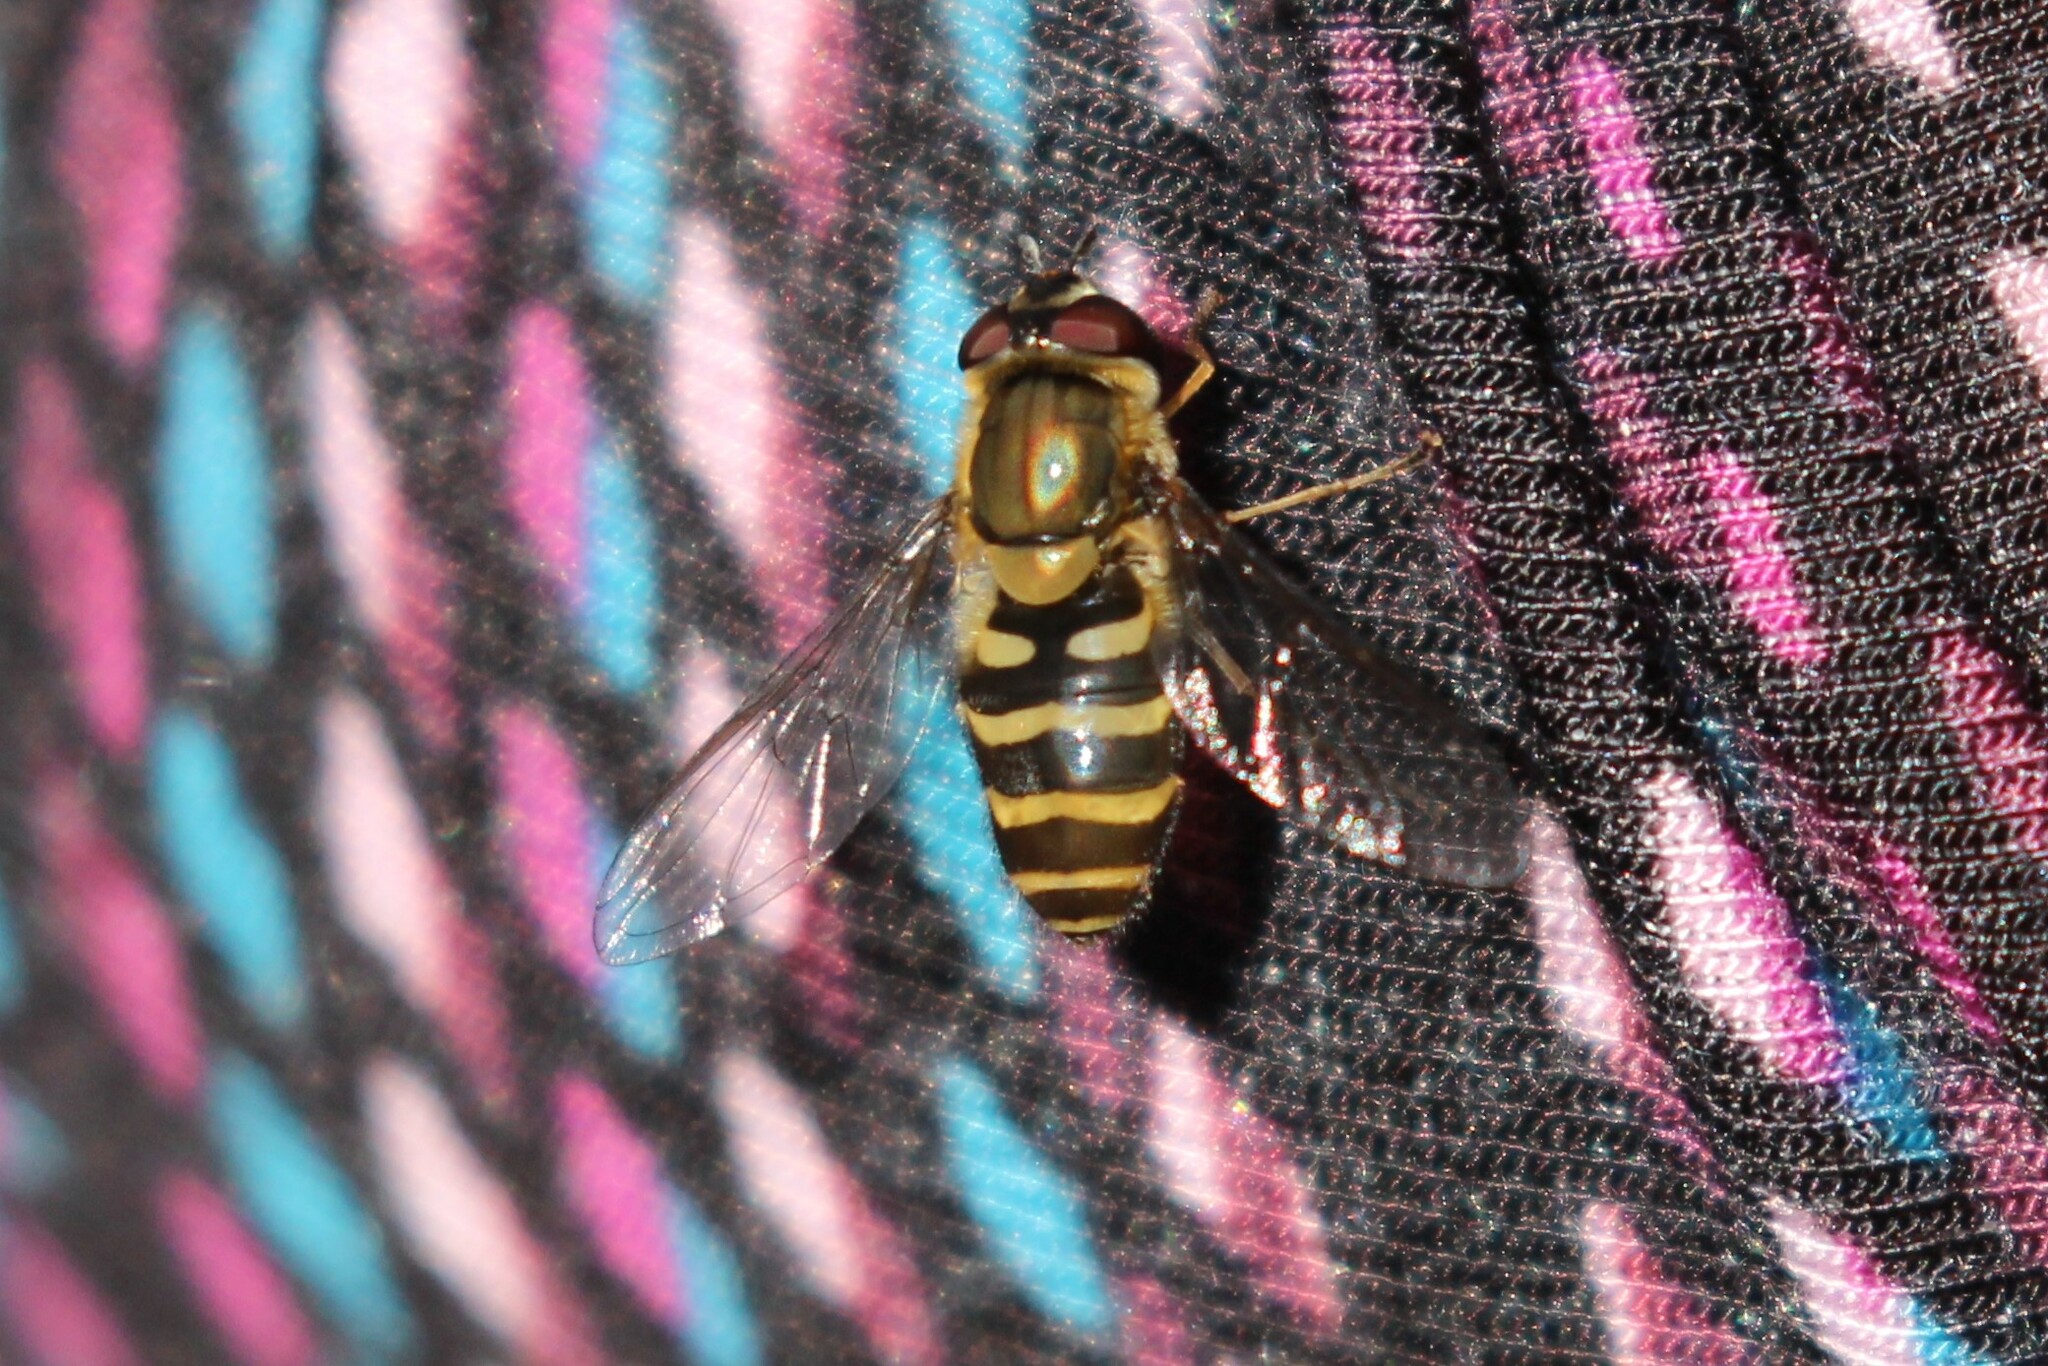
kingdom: Animalia
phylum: Arthropoda
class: Insecta
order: Diptera
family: Syrphidae
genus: Syrphus
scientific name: Syrphus torvus
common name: Hairy-eyed flower fly
